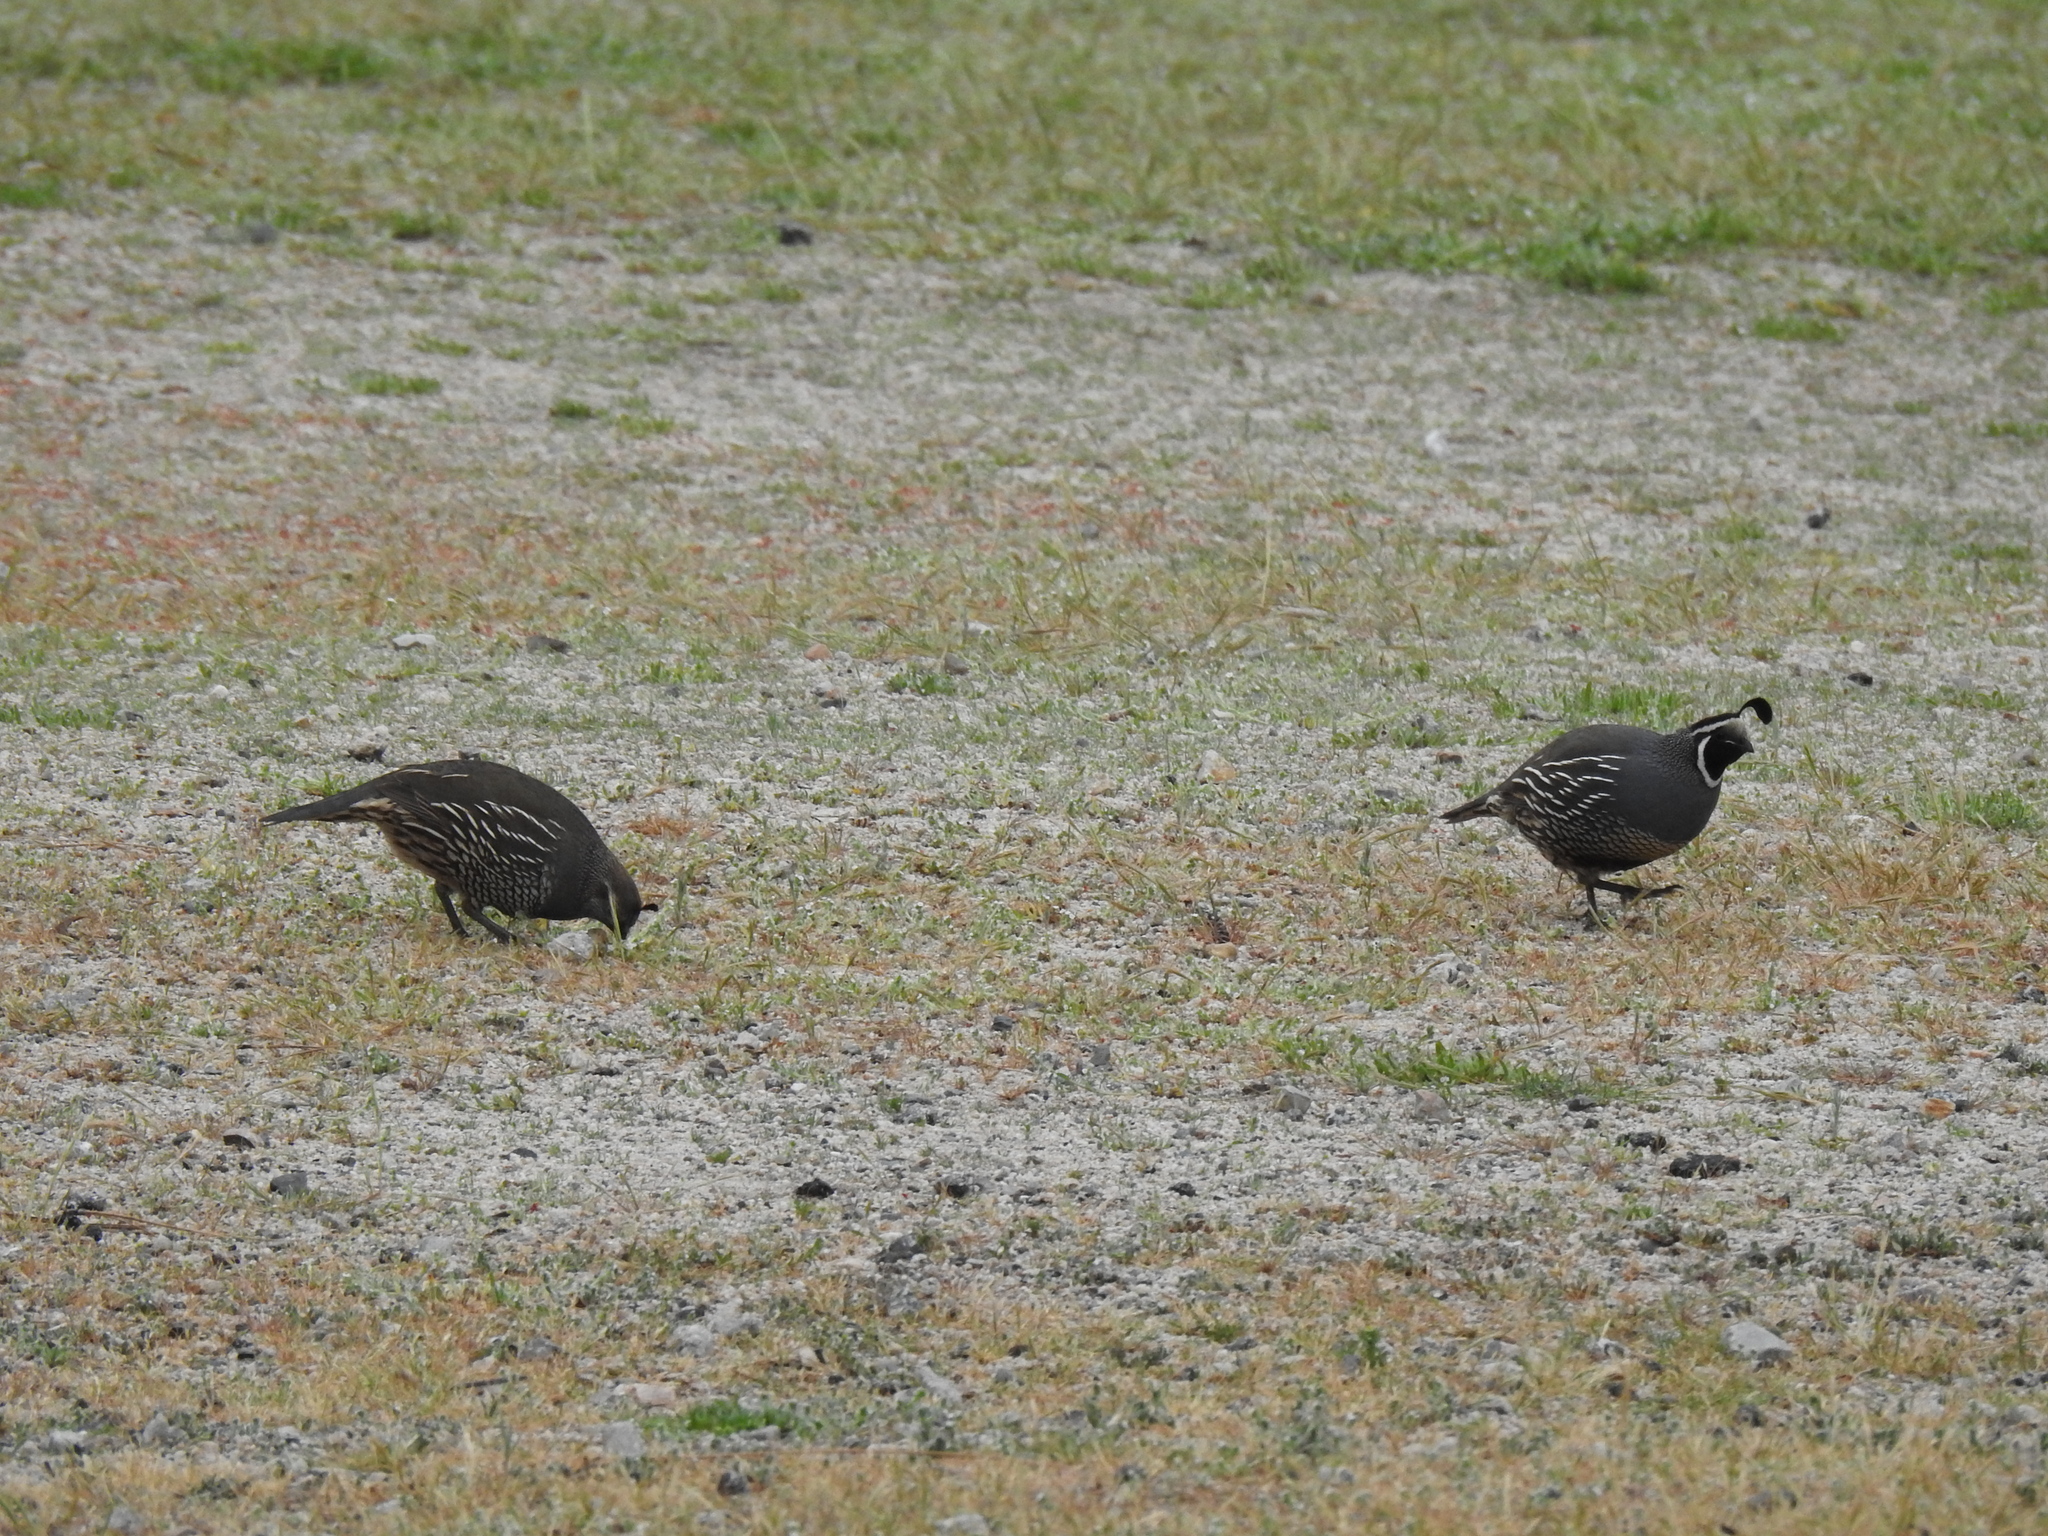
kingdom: Animalia
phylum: Chordata
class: Aves
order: Galliformes
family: Odontophoridae
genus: Callipepla
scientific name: Callipepla californica
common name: California quail
